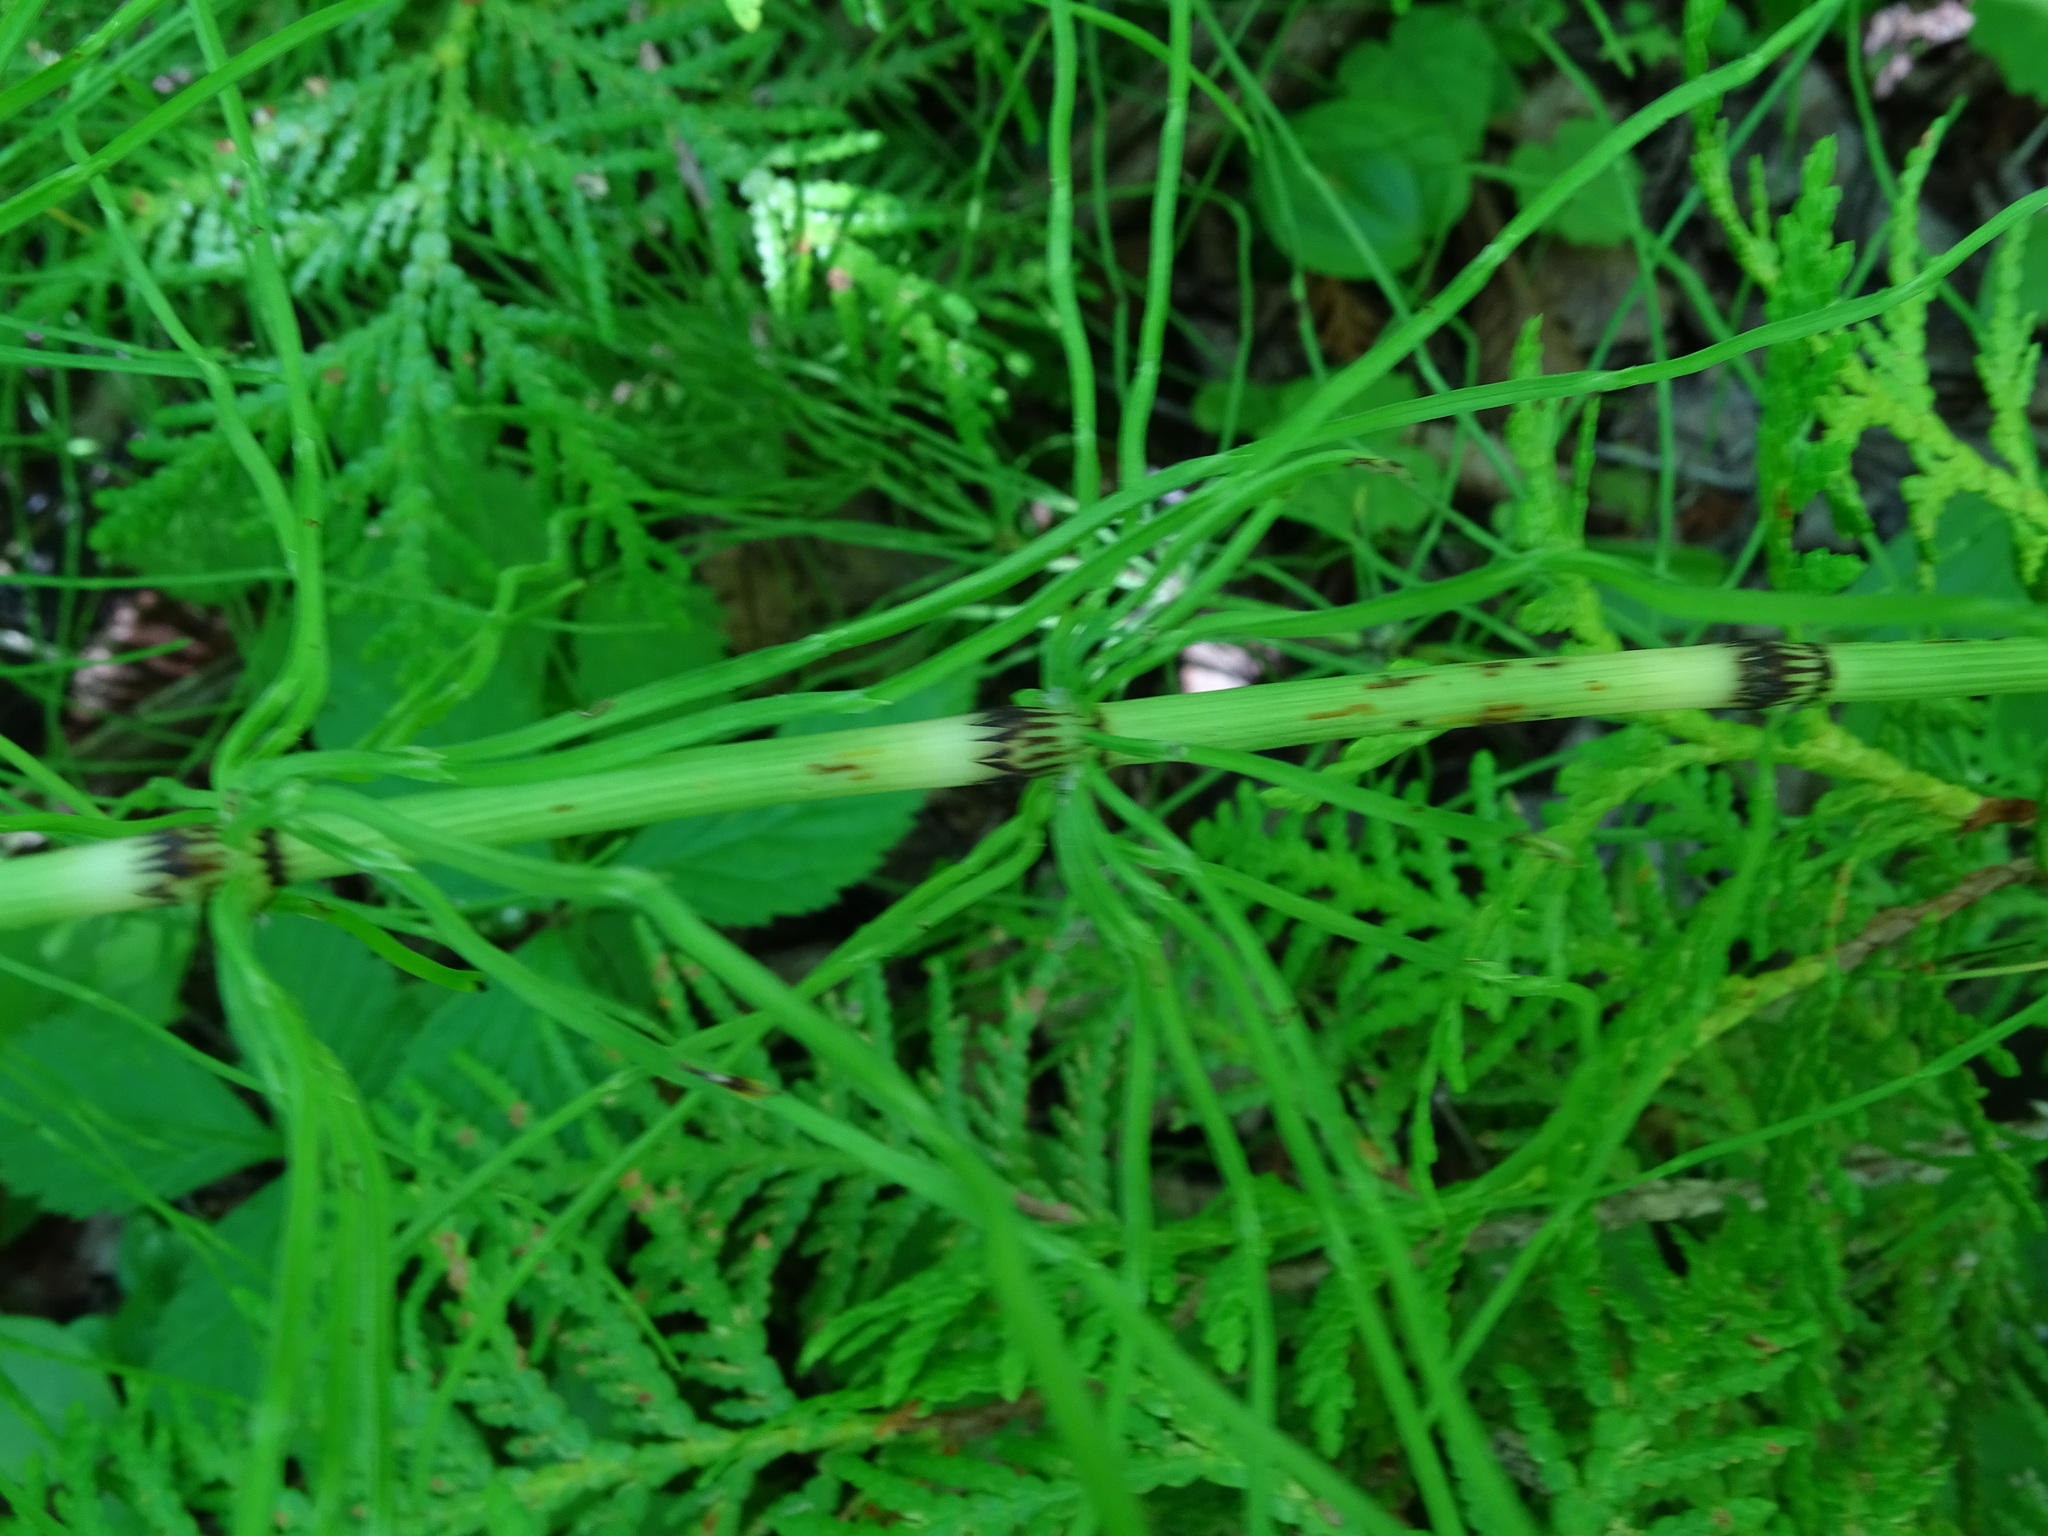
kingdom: Plantae
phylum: Tracheophyta
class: Polypodiopsida
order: Equisetales
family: Equisetaceae
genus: Equisetum
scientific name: Equisetum arvense
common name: Field horsetail
